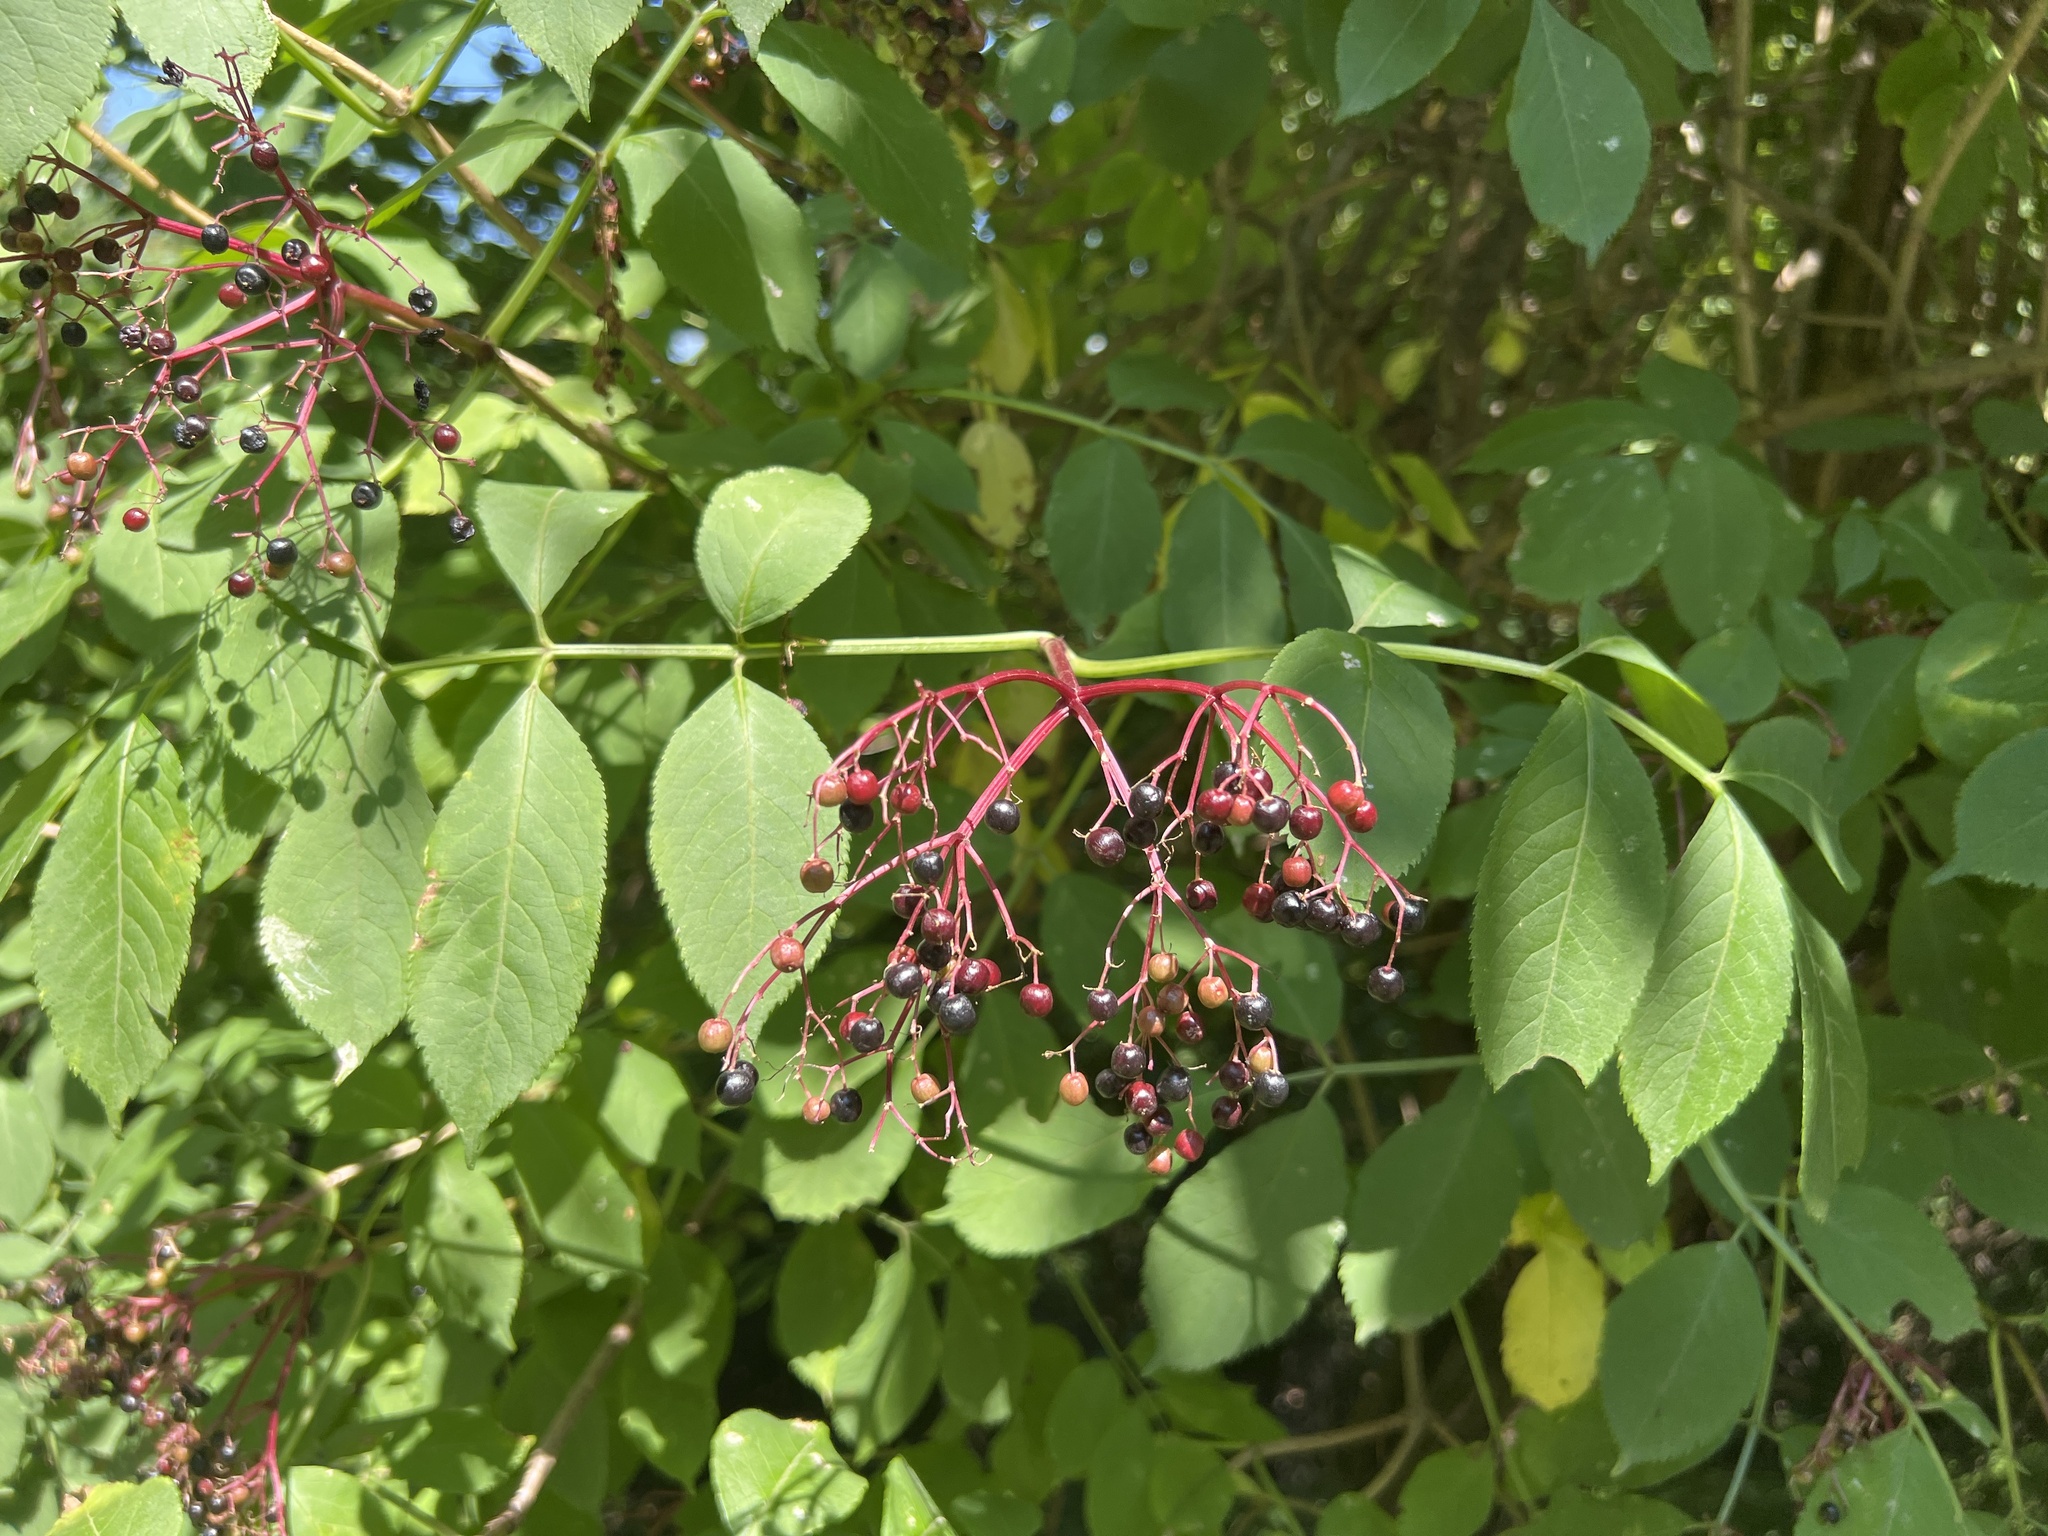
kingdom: Plantae
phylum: Tracheophyta
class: Magnoliopsida
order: Dipsacales
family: Viburnaceae
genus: Sambucus
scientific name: Sambucus nigra
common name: Elder
